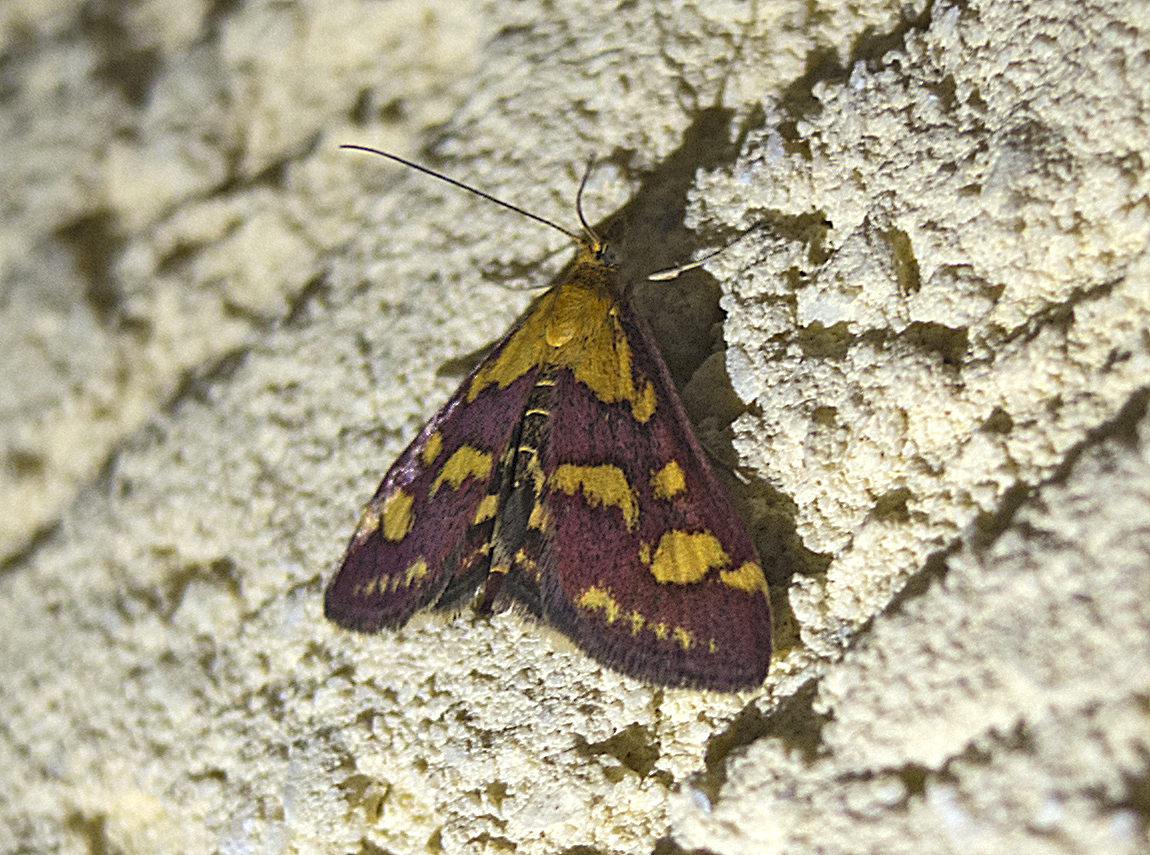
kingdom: Animalia
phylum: Arthropoda
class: Insecta
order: Lepidoptera
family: Crambidae
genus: Pyrausta
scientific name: Pyrausta purpuralis
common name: Common purple & gold
